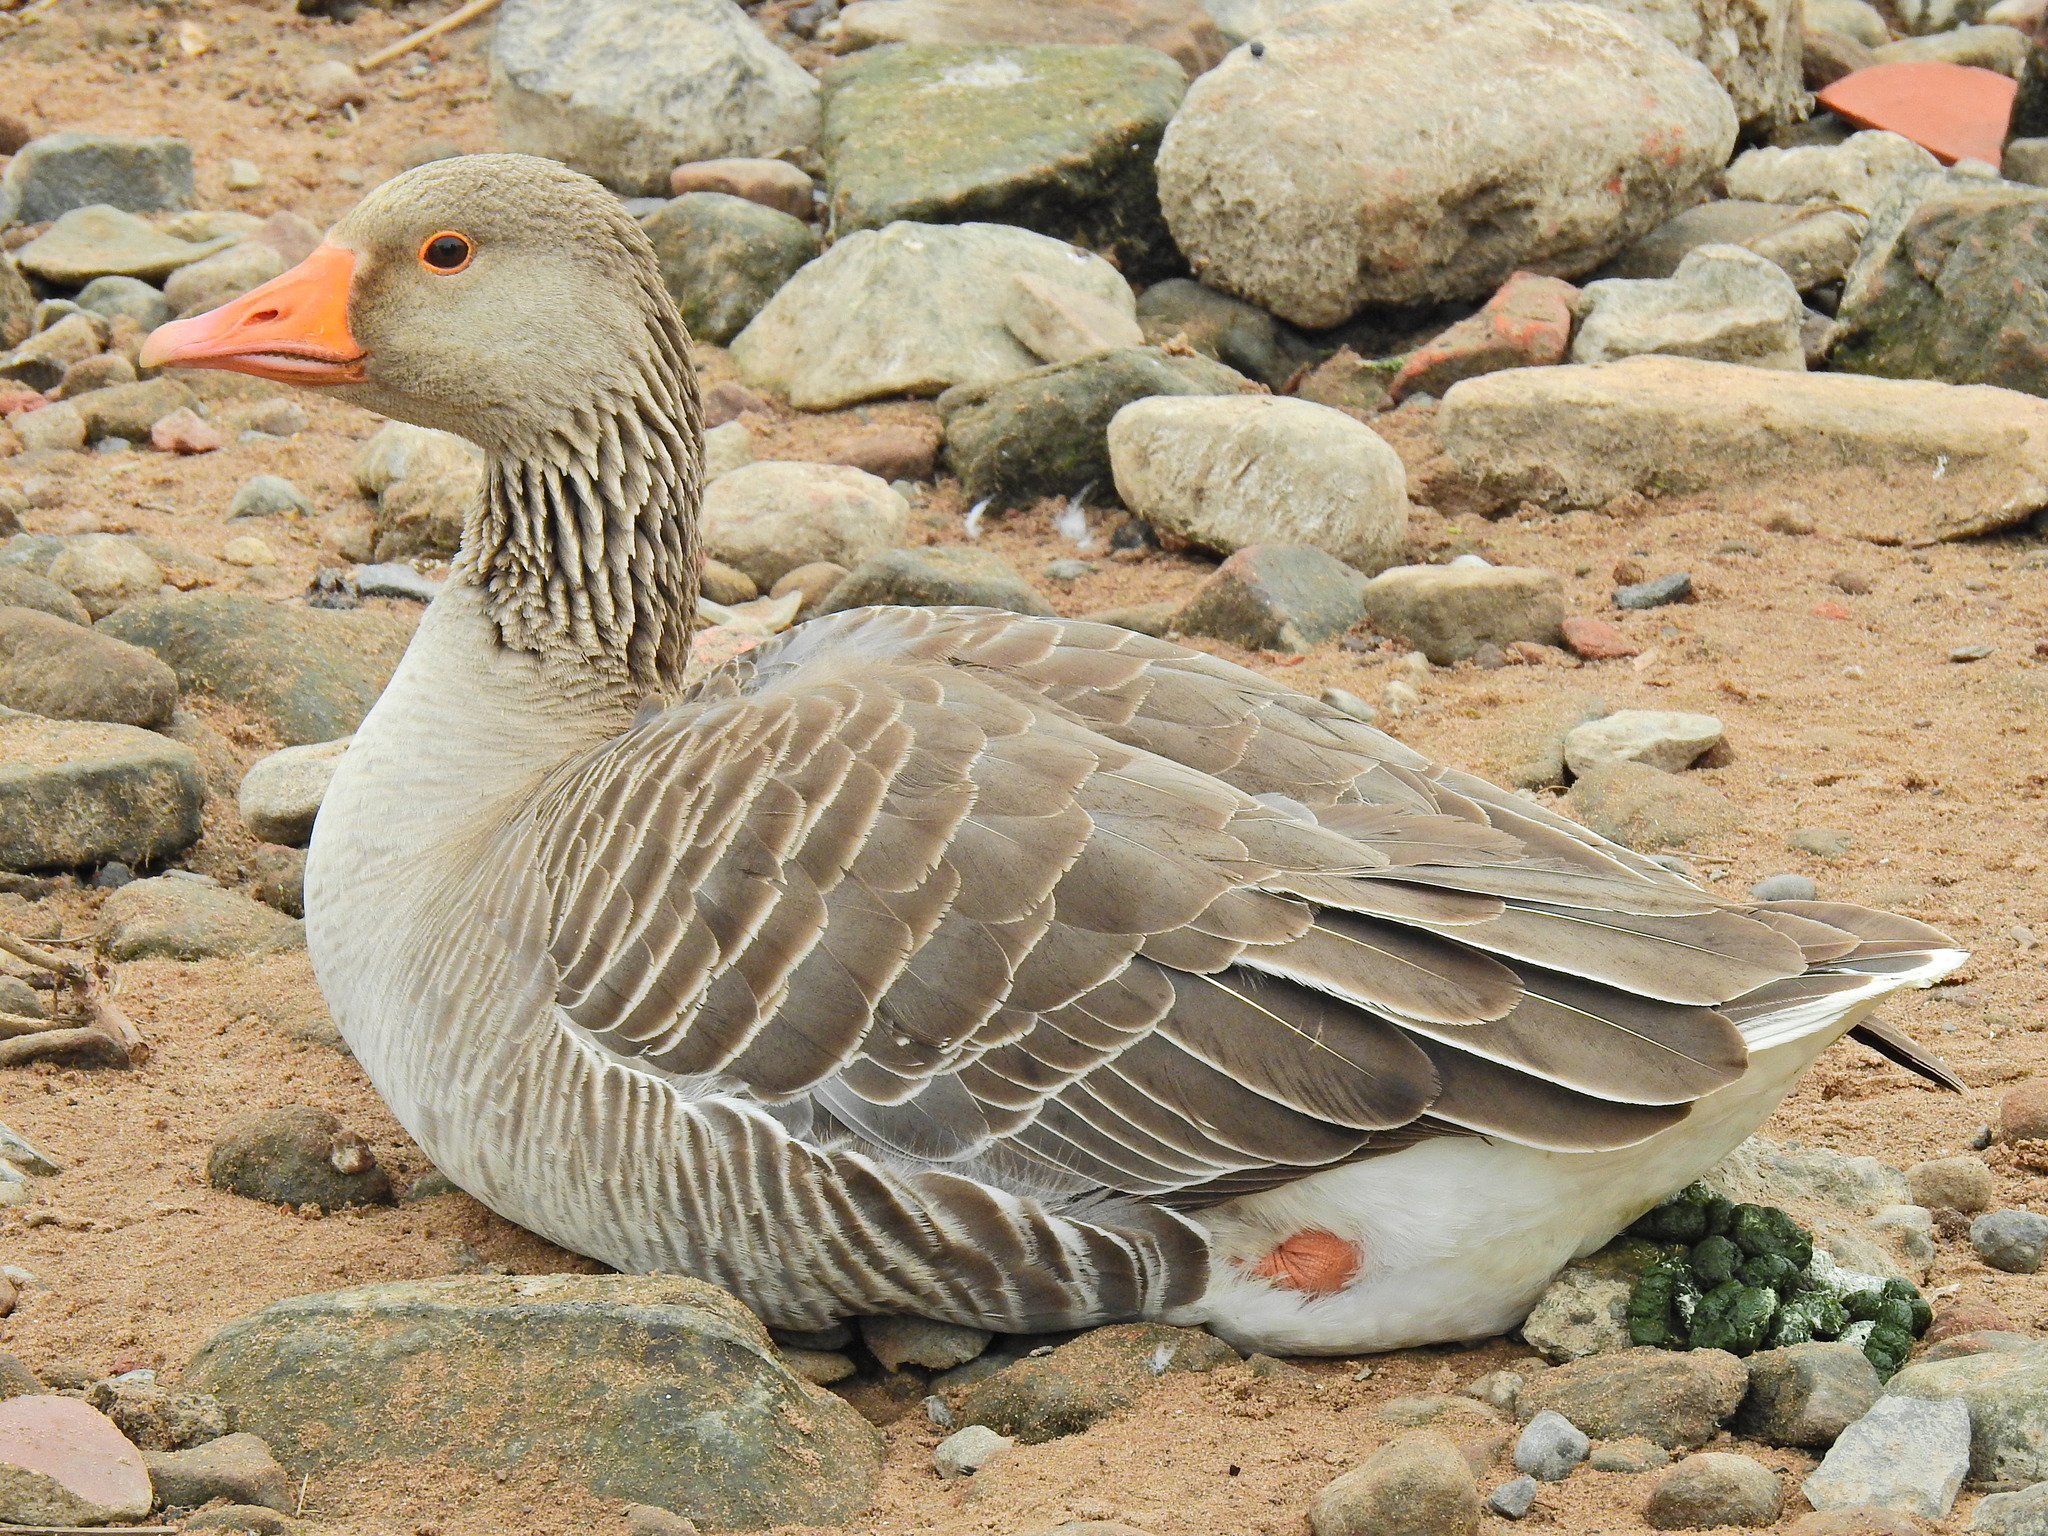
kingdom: Animalia
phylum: Chordata
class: Aves
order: Anseriformes
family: Anatidae
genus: Anser
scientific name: Anser anser
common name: Greylag goose
